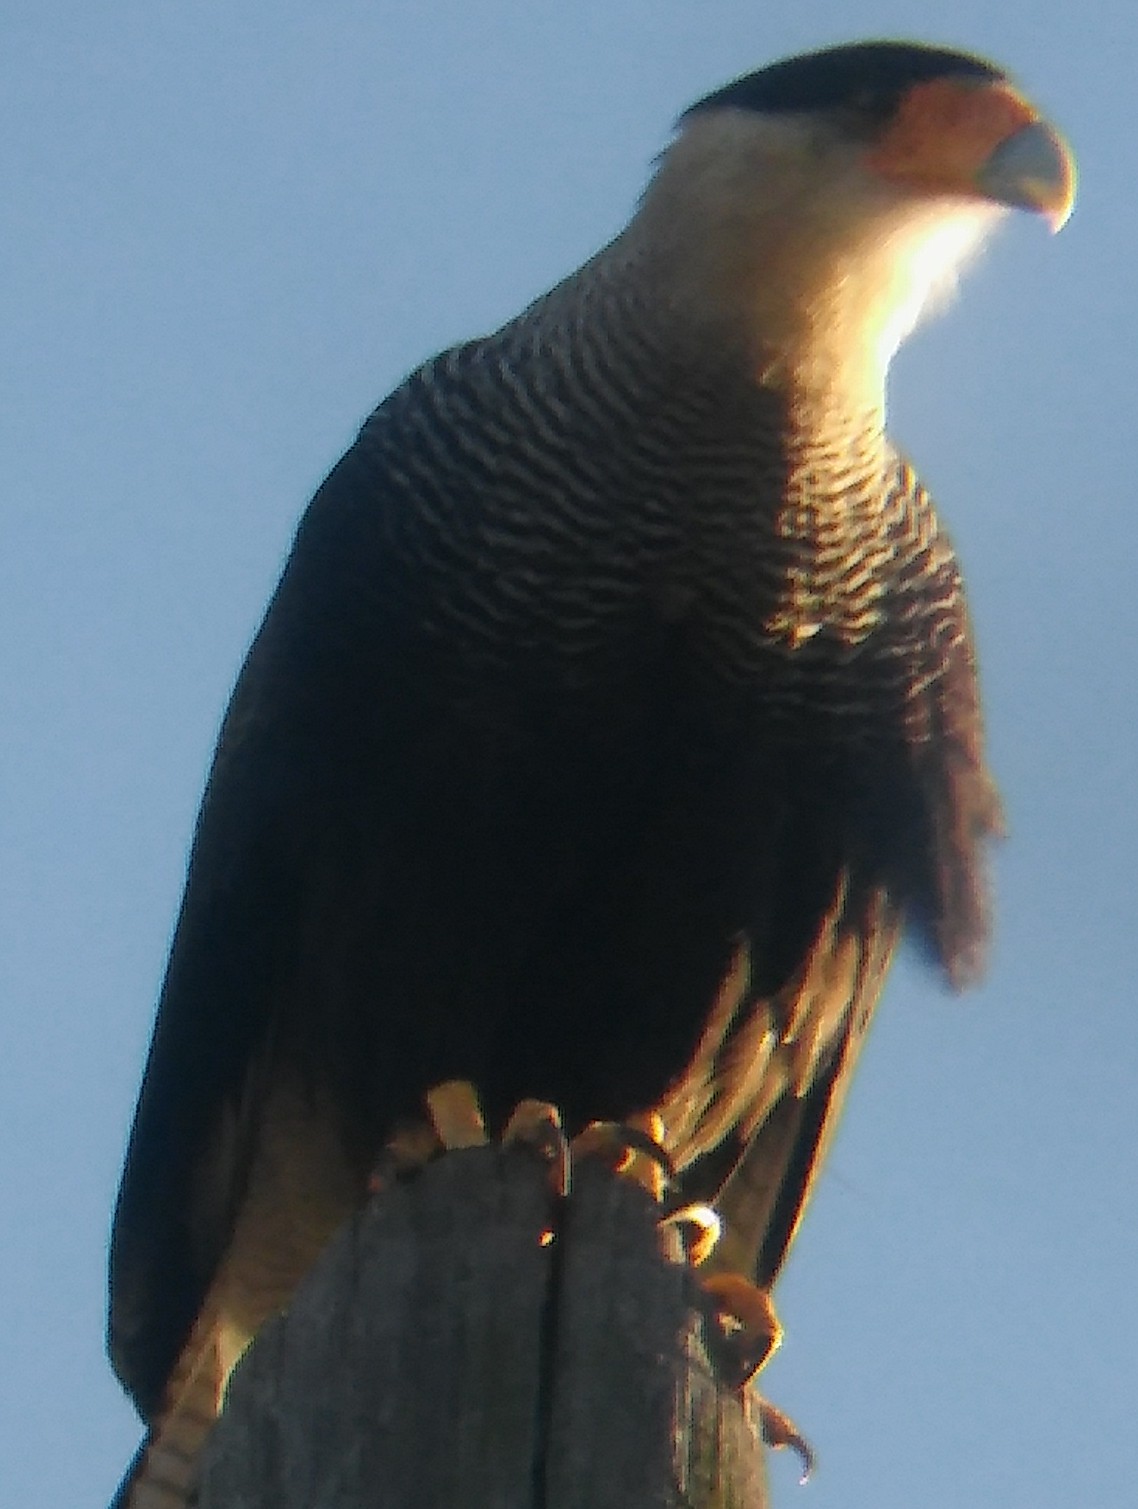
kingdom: Animalia
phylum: Chordata
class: Aves
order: Falconiformes
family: Falconidae
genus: Caracara
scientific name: Caracara plancus
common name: Southern caracara
